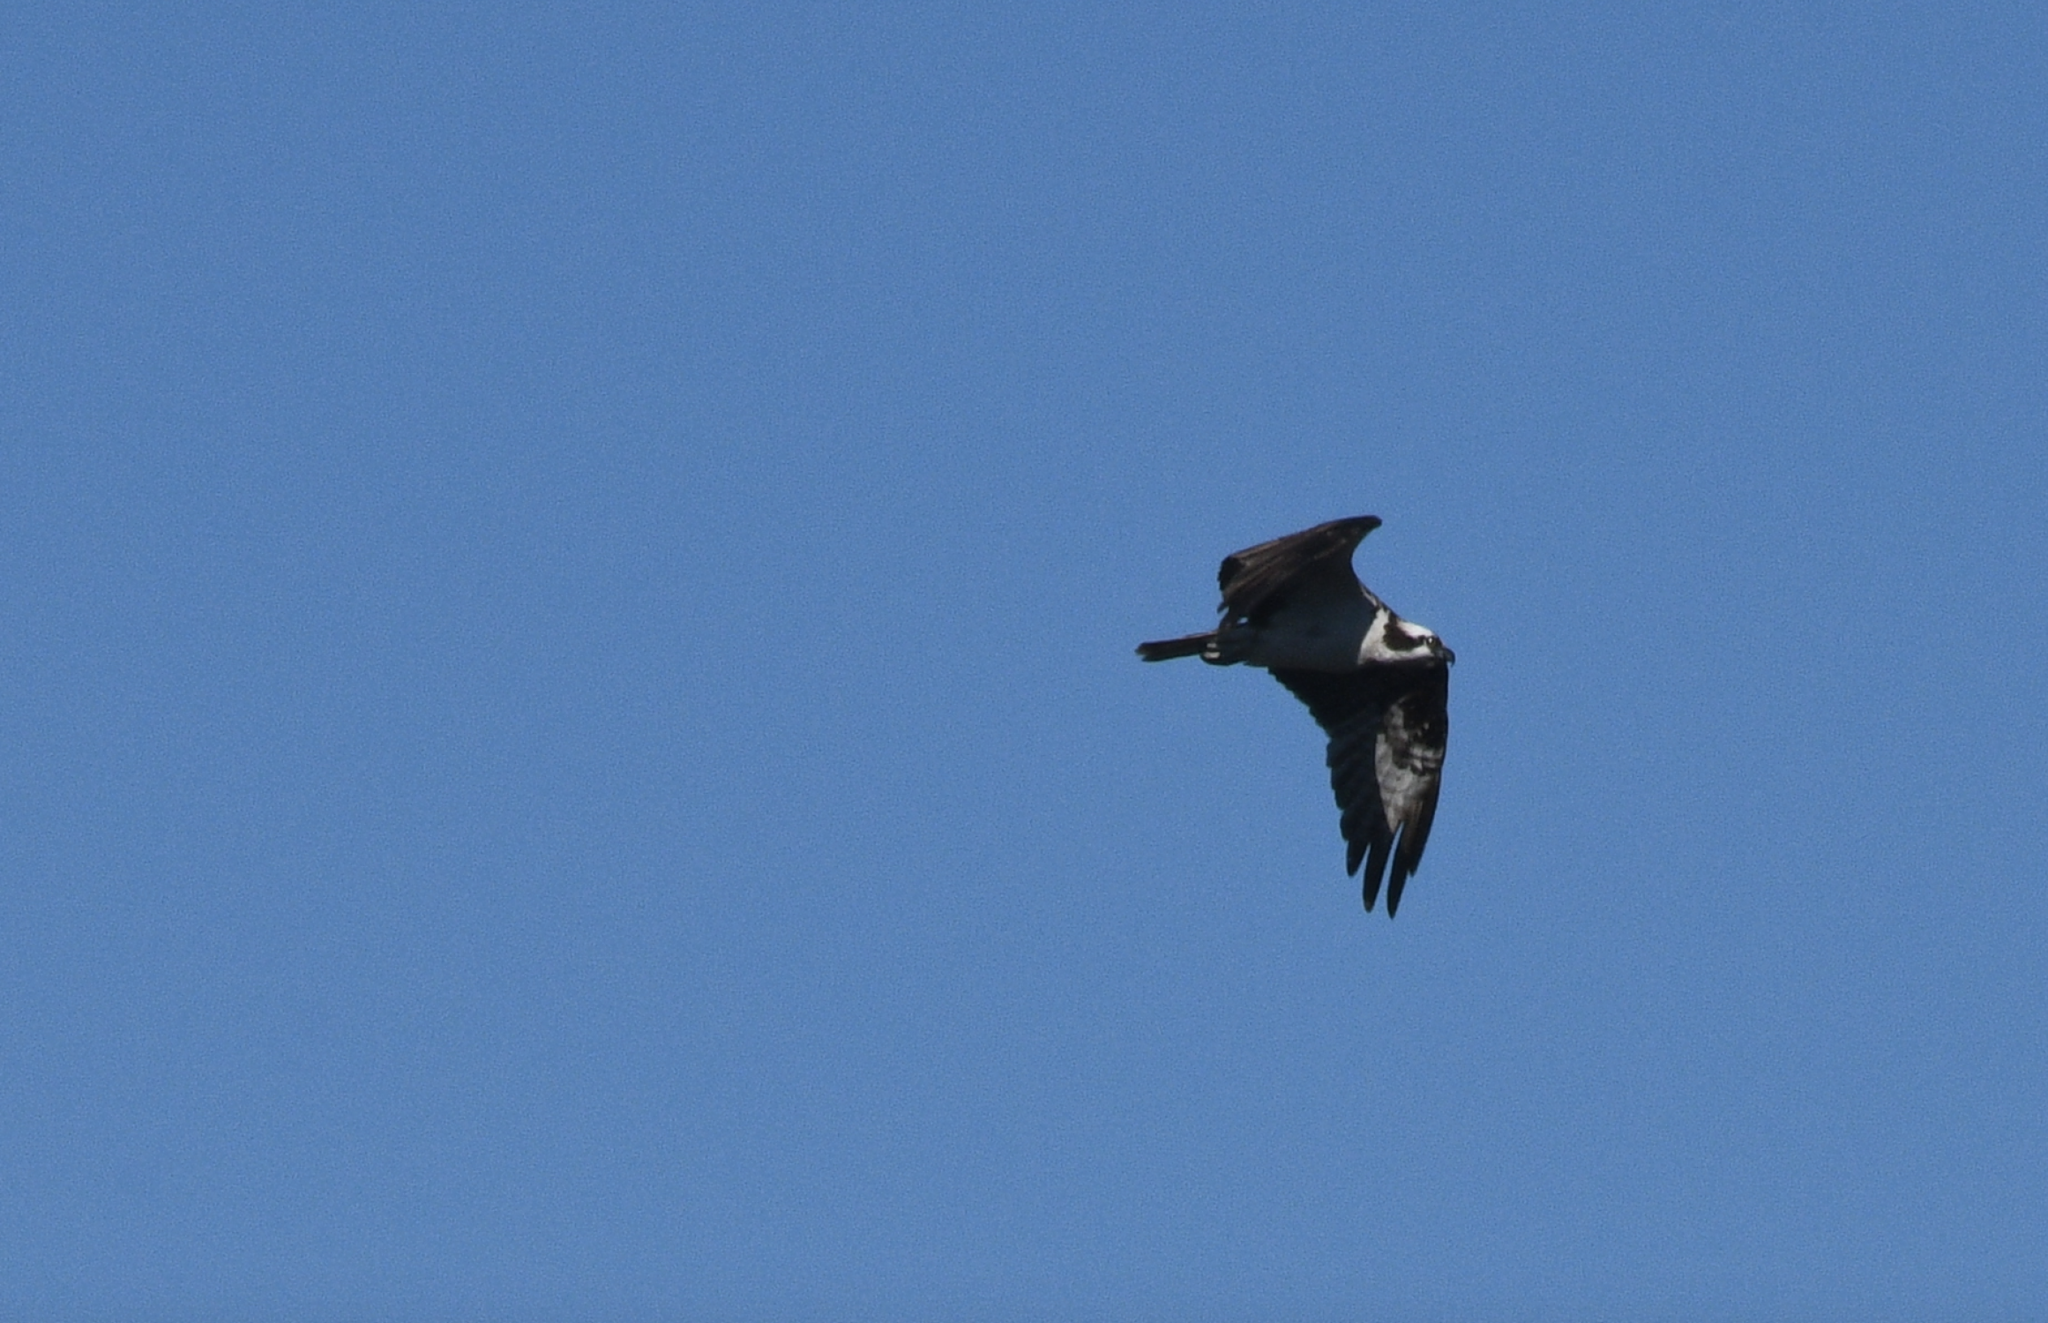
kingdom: Animalia
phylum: Chordata
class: Aves
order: Accipitriformes
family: Pandionidae
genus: Pandion
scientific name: Pandion haliaetus
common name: Osprey
